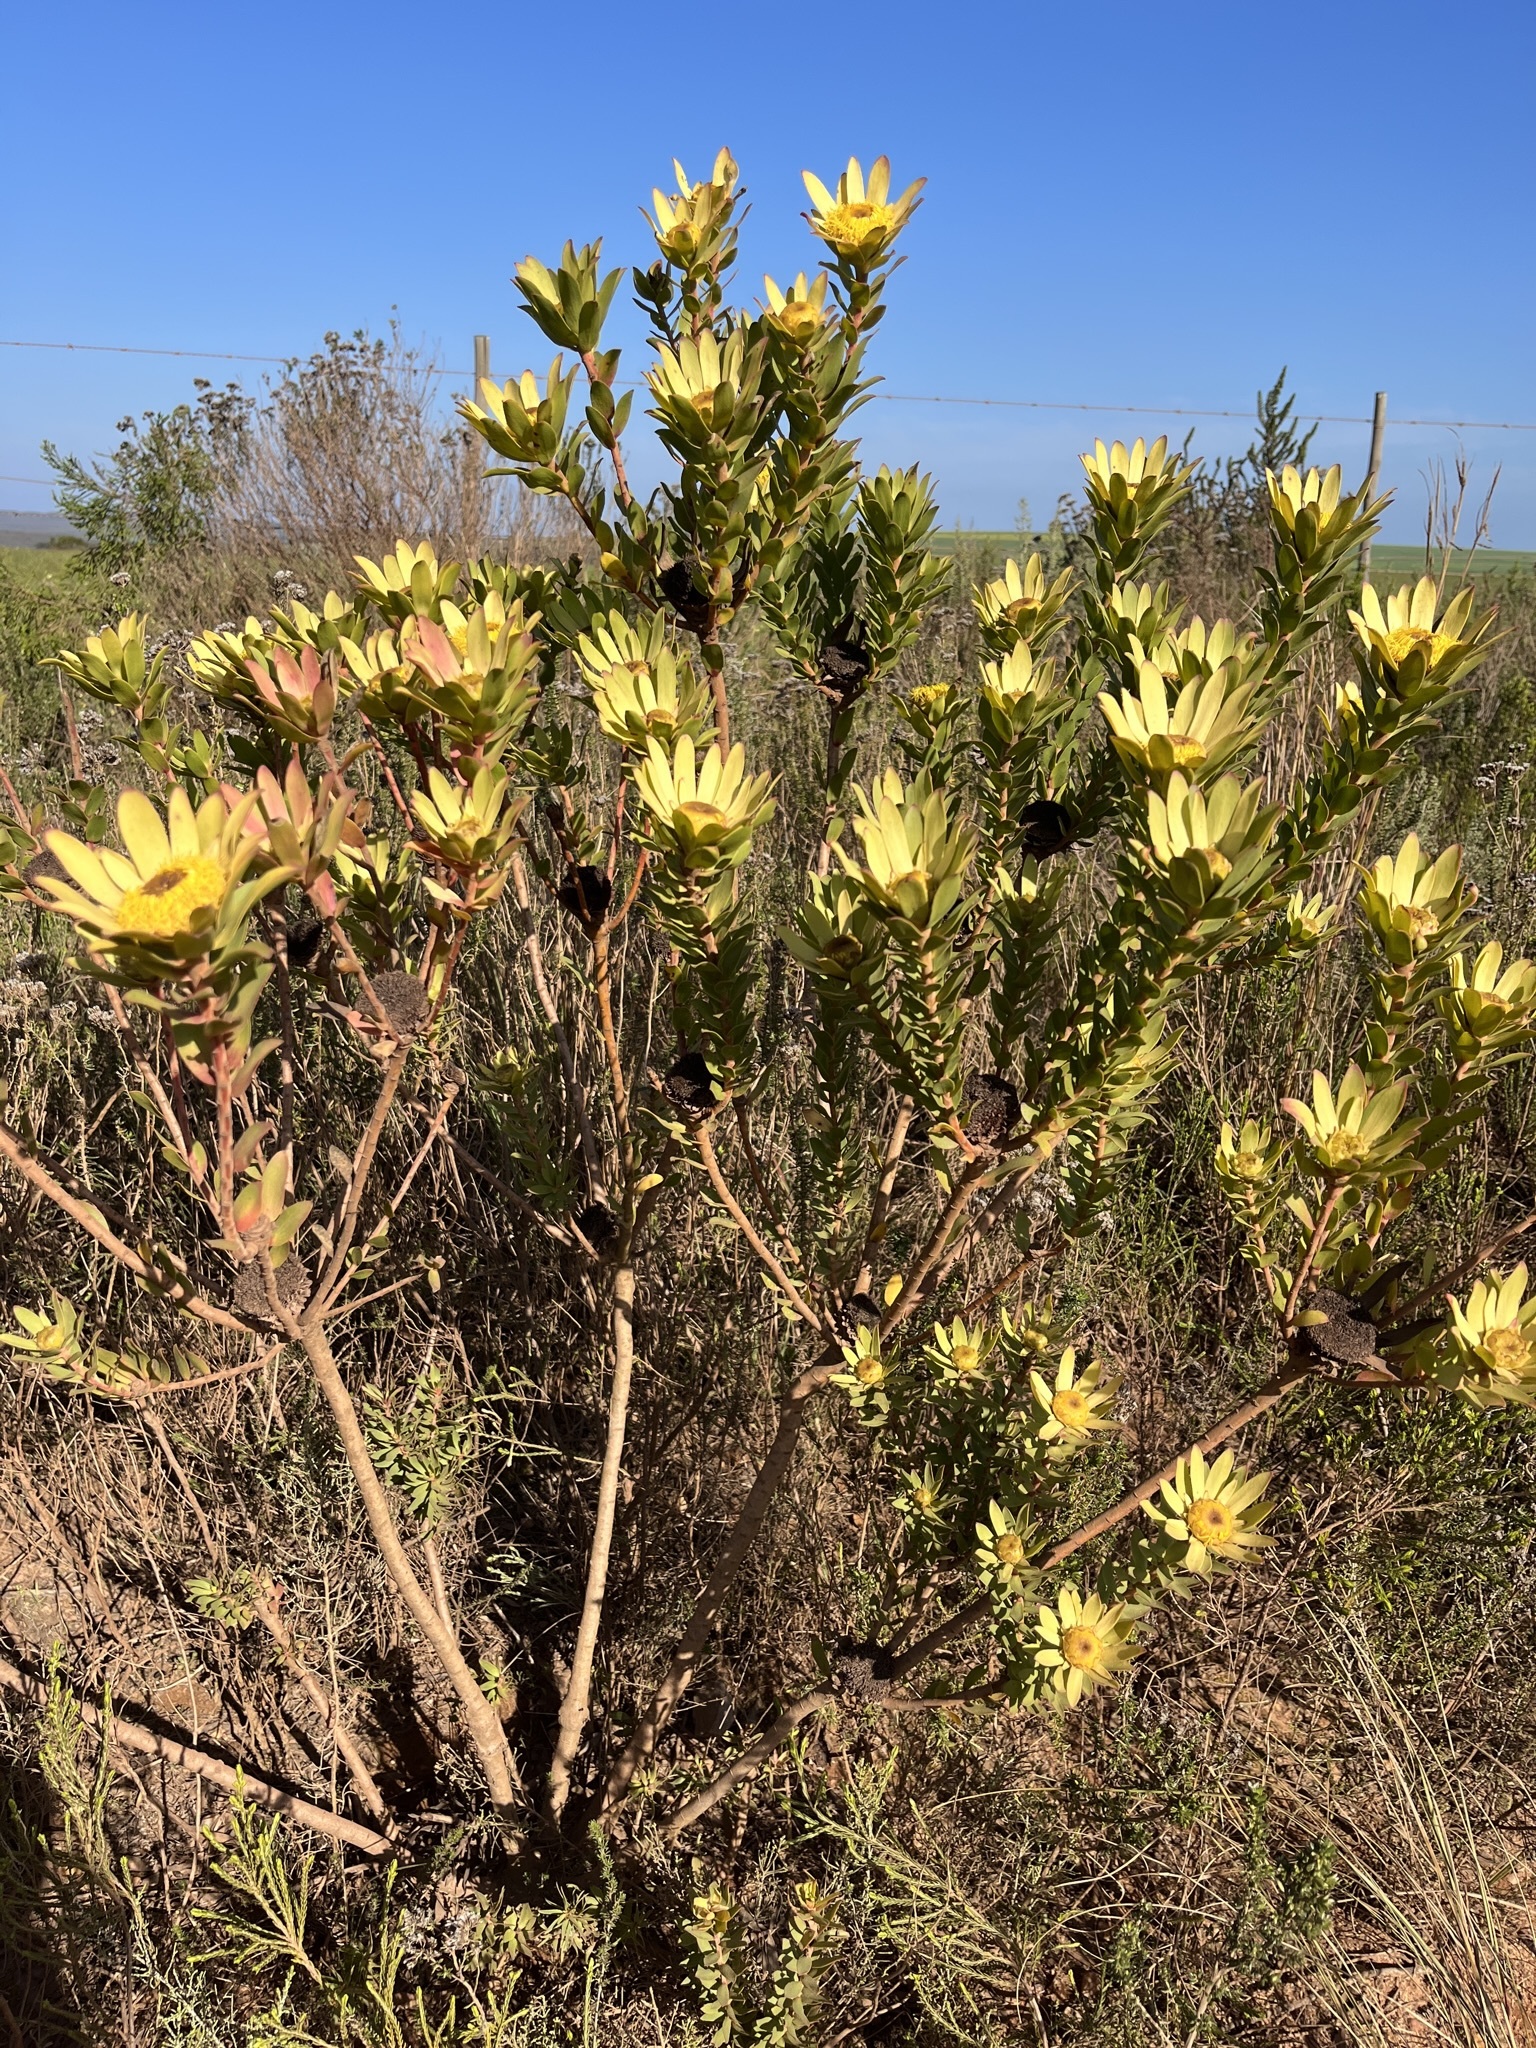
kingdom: Plantae
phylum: Tracheophyta
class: Magnoliopsida
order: Proteales
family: Proteaceae
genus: Leucadendron
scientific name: Leucadendron elimense
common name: Elim conebush
